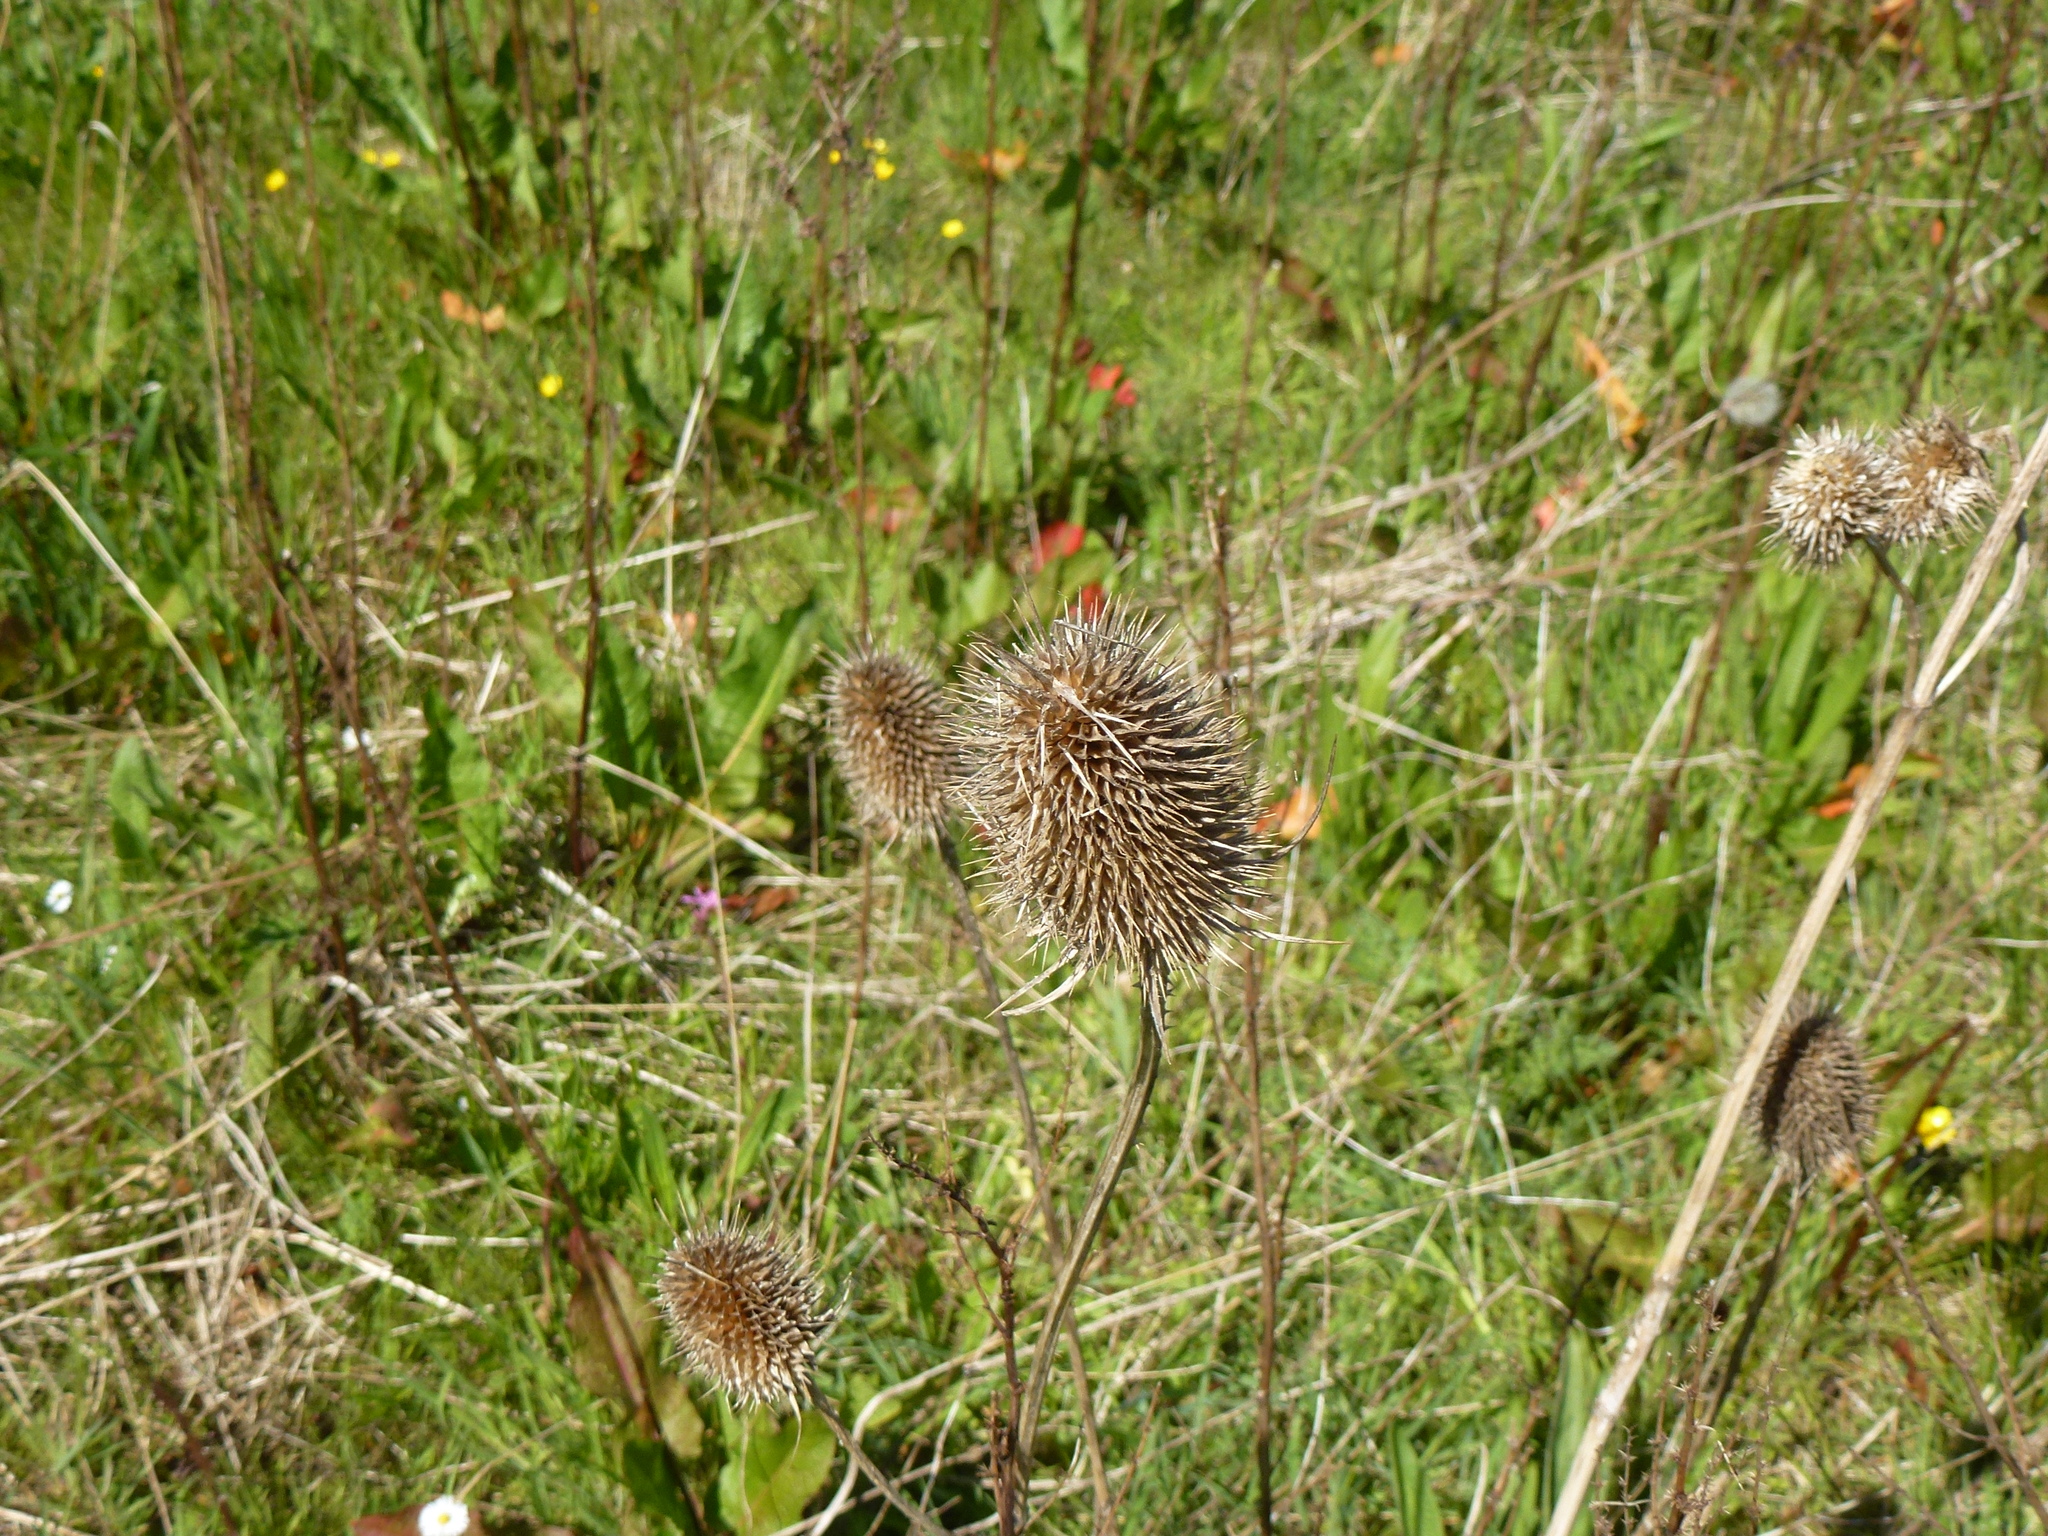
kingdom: Plantae
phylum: Tracheophyta
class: Magnoliopsida
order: Dipsacales
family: Caprifoliaceae
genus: Dipsacus
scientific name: Dipsacus fullonum
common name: Teasel
